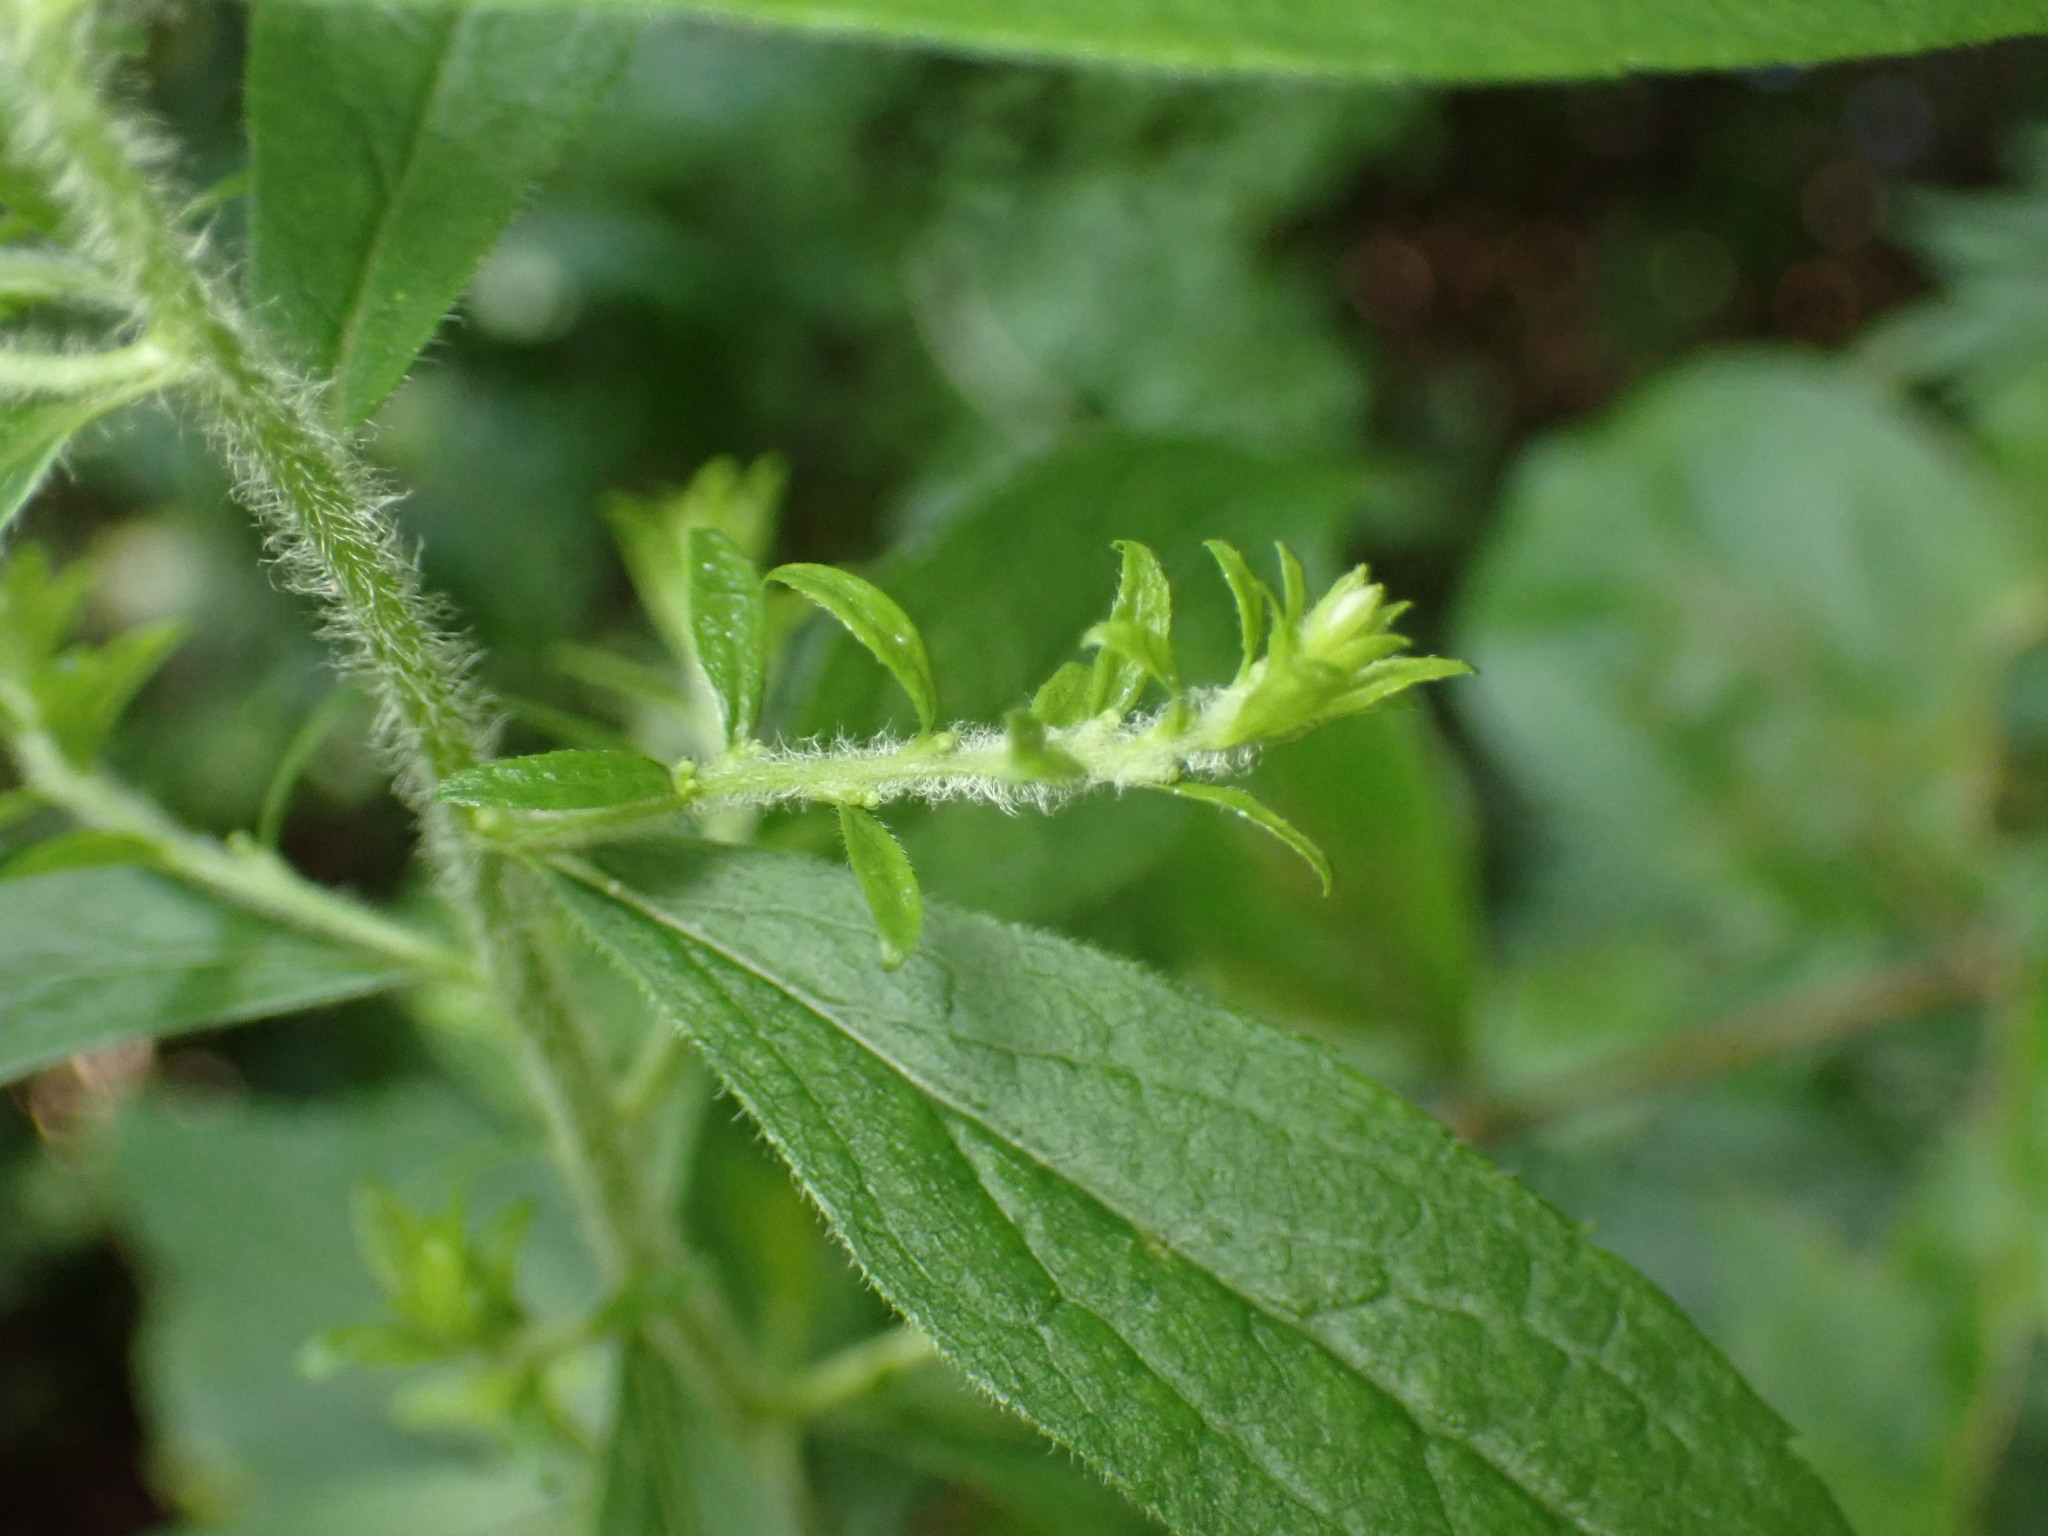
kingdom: Plantae
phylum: Tracheophyta
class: Magnoliopsida
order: Asterales
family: Asteraceae
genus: Solidago
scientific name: Solidago rugosa
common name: Rough-stemmed goldenrod
